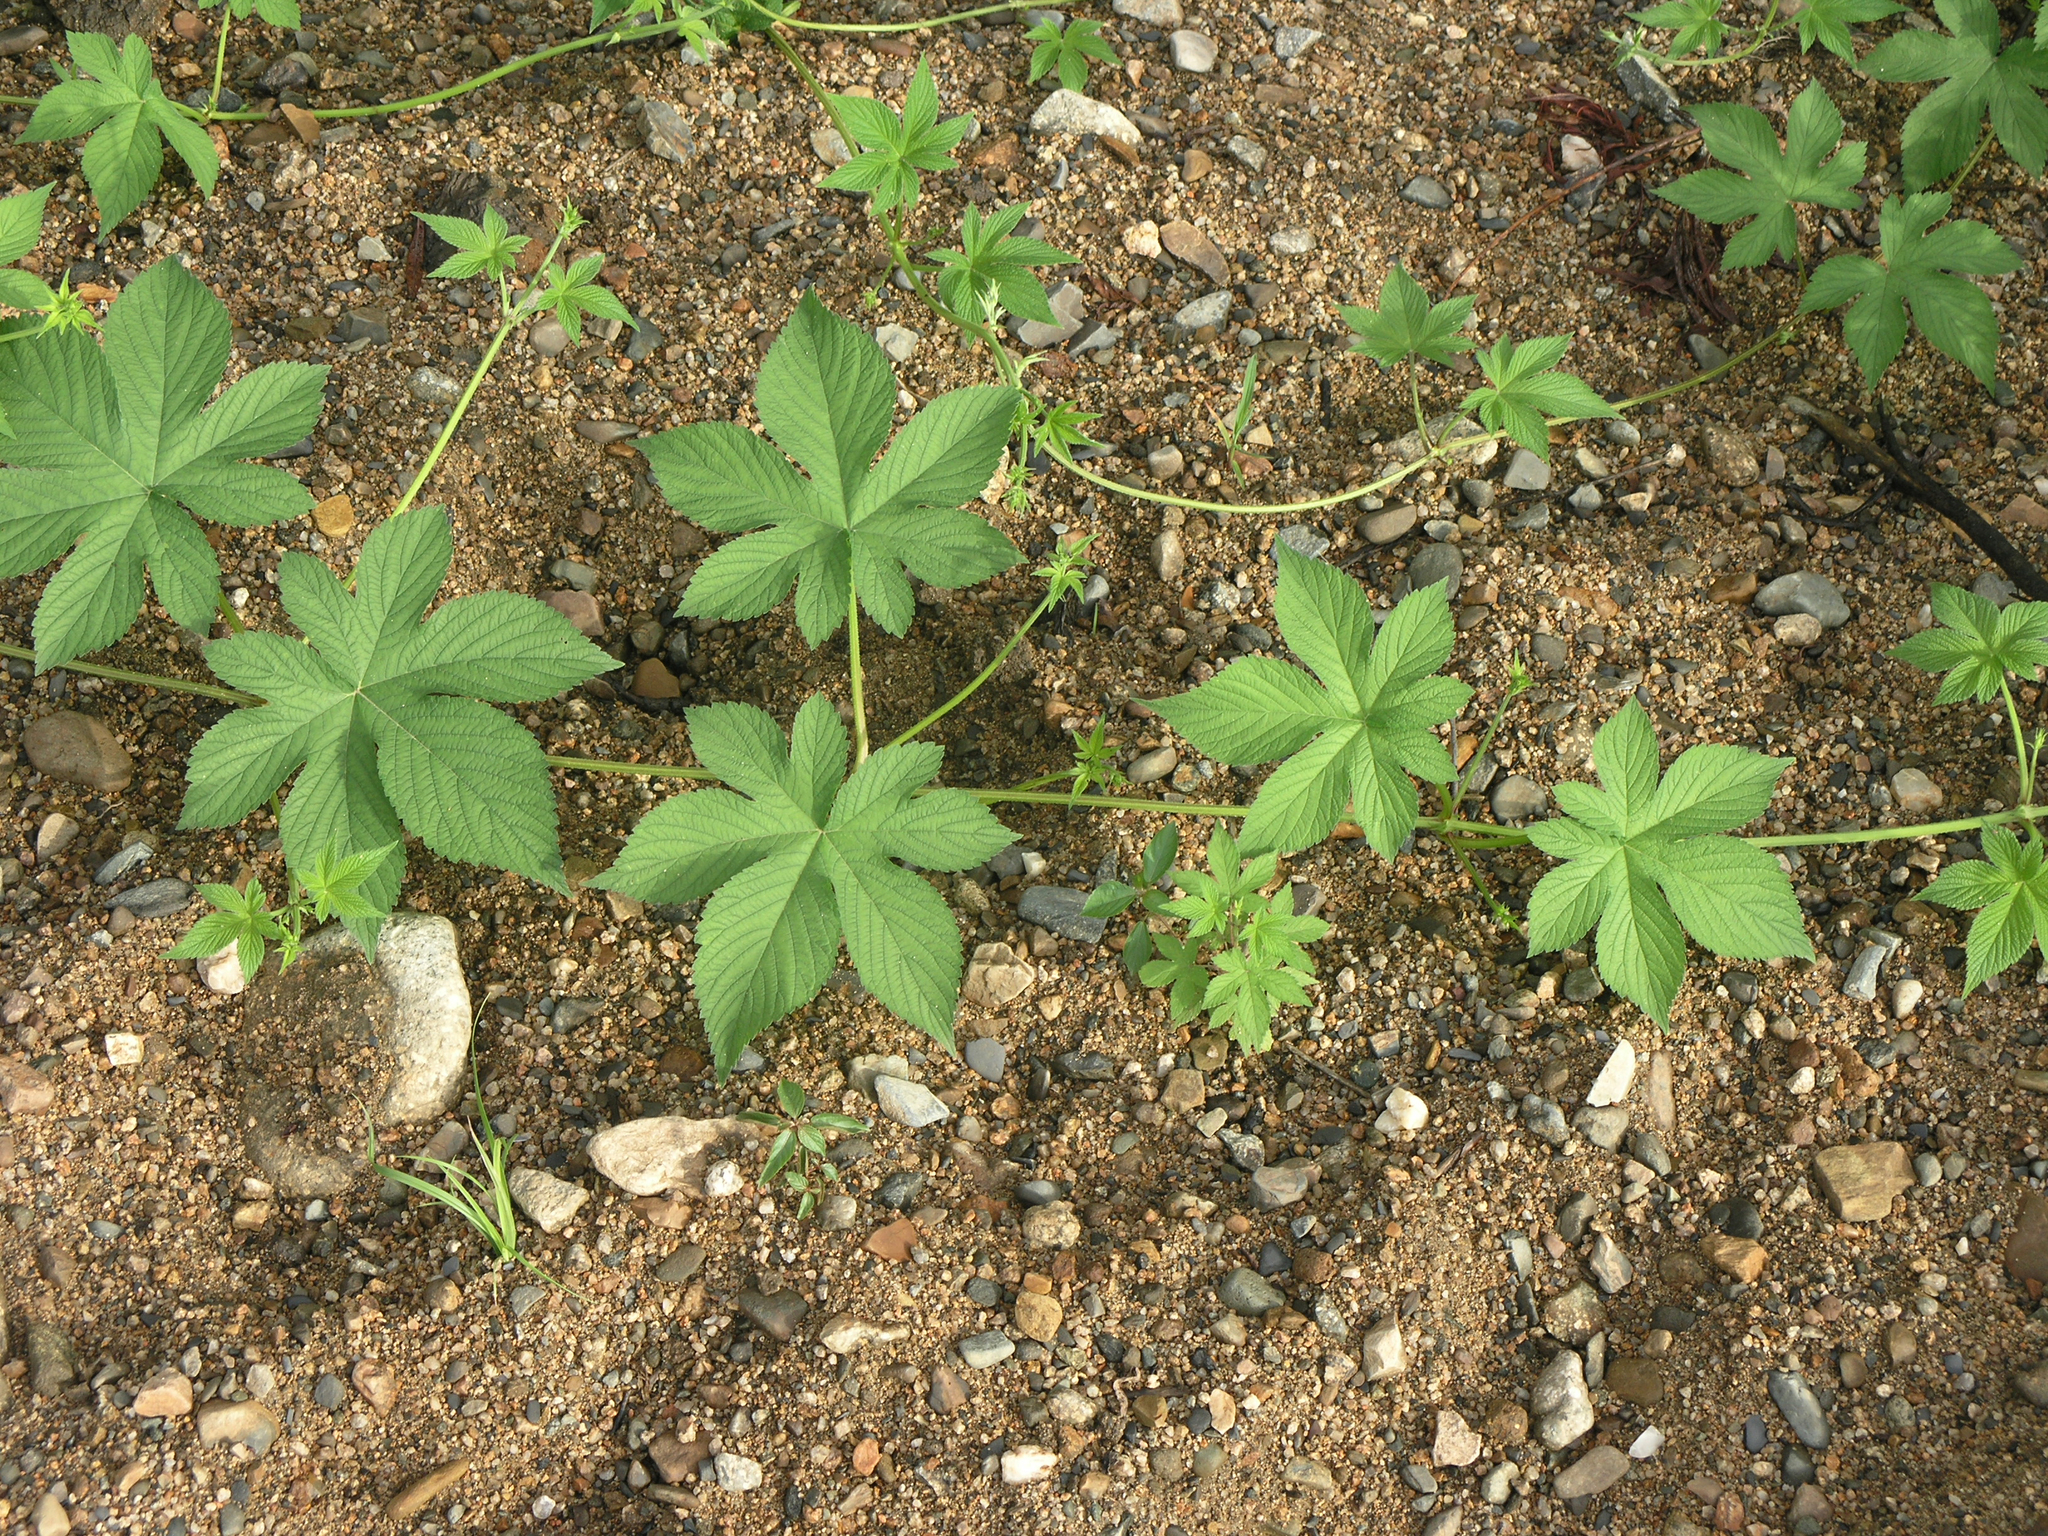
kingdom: Plantae
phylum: Tracheophyta
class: Magnoliopsida
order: Rosales
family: Cannabaceae
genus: Humulus
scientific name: Humulus scandens
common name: Japanese hop
